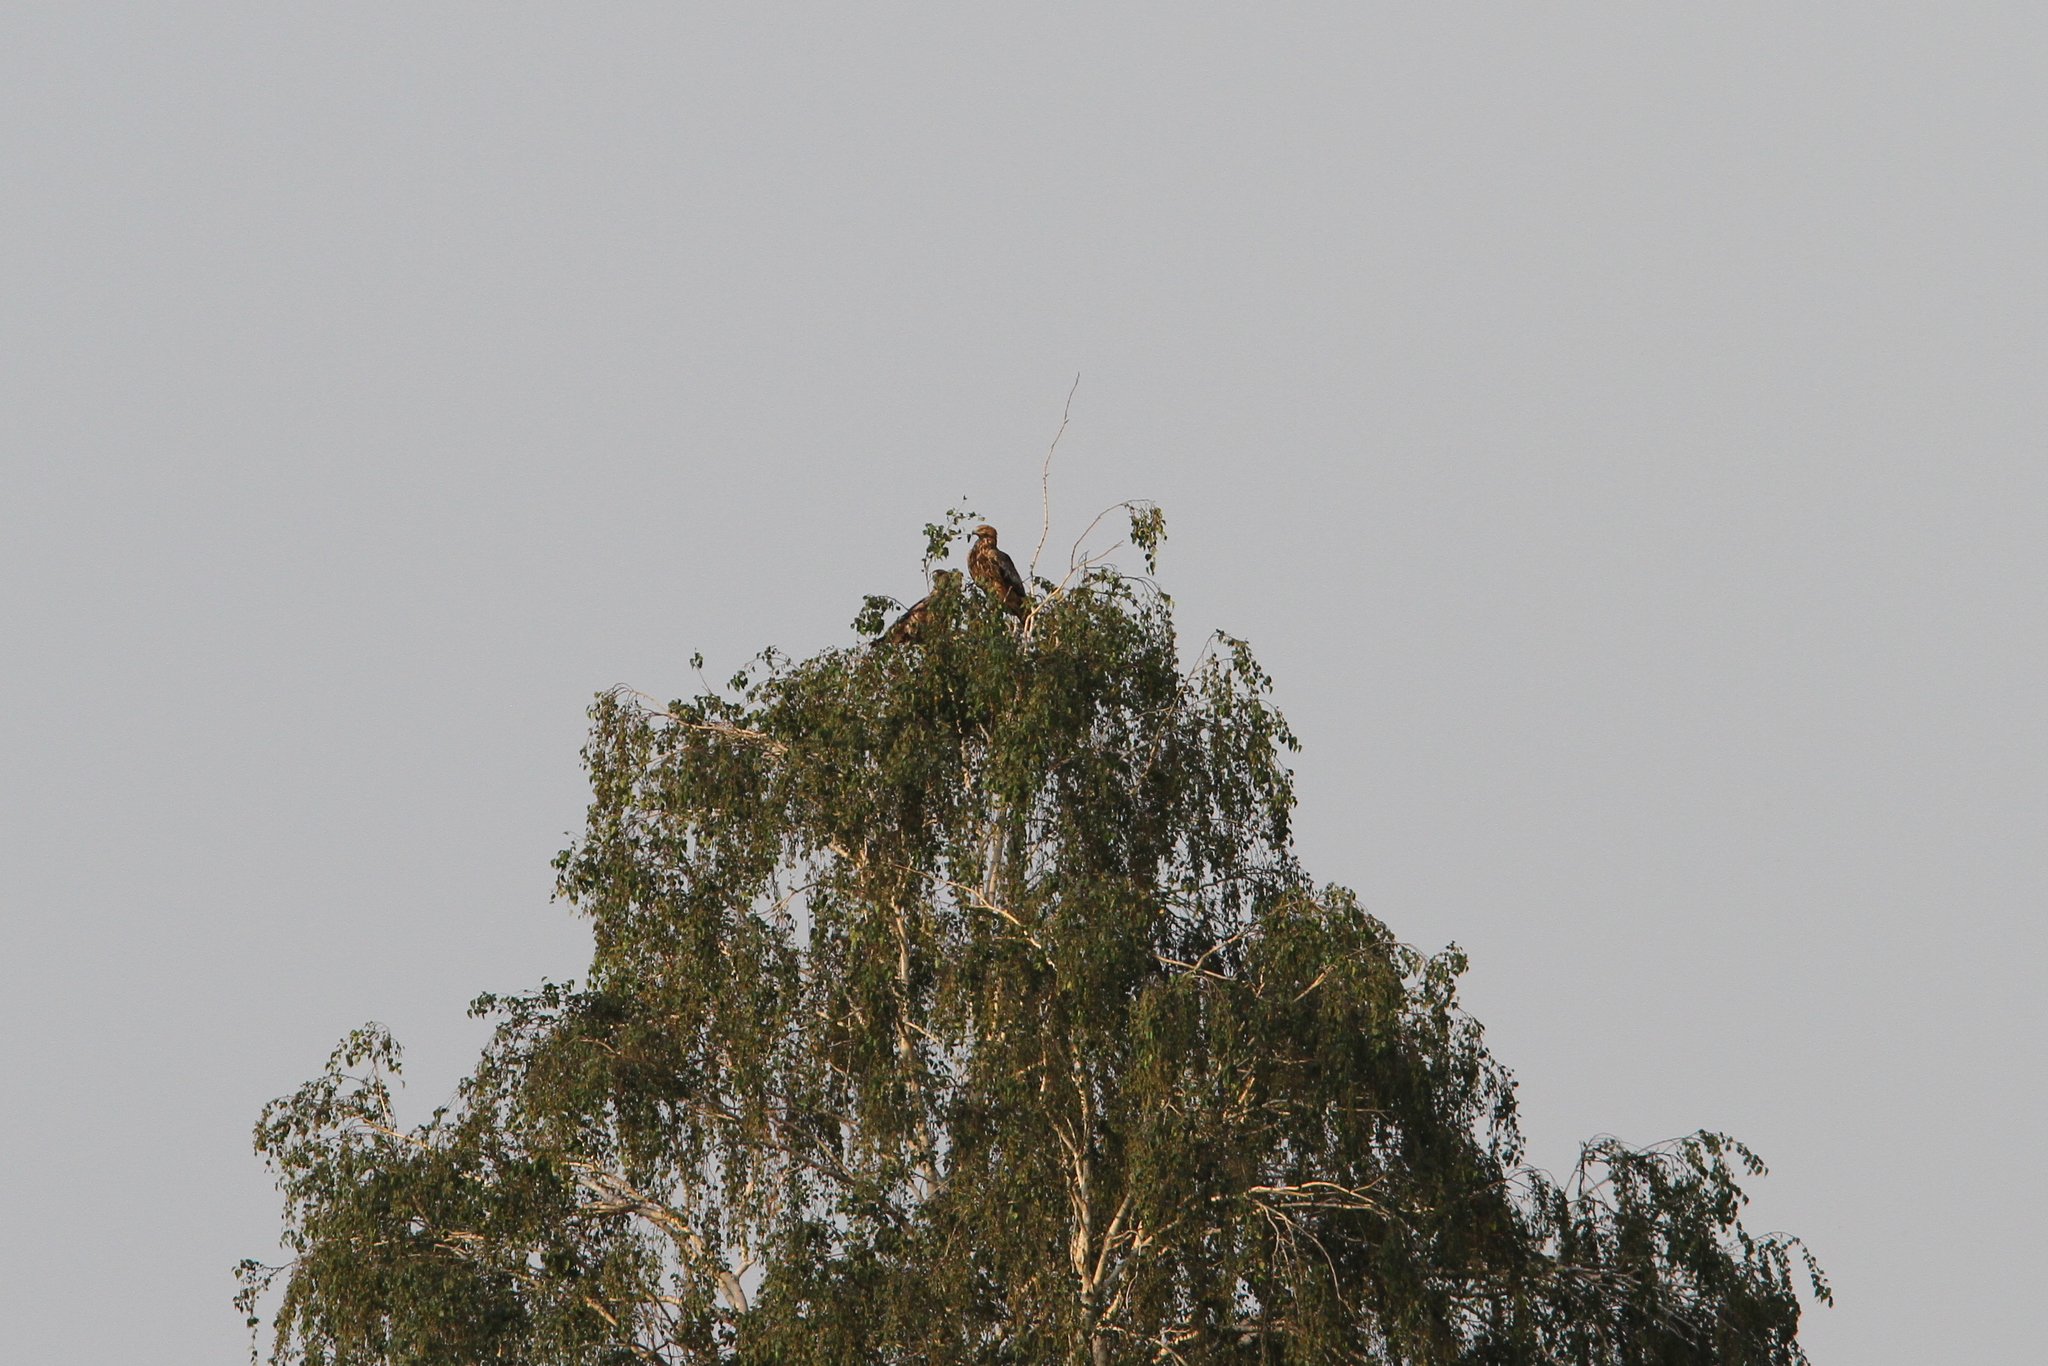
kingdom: Animalia
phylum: Chordata
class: Aves
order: Accipitriformes
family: Accipitridae
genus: Aquila
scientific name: Aquila heliaca
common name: Eastern imperial eagle
